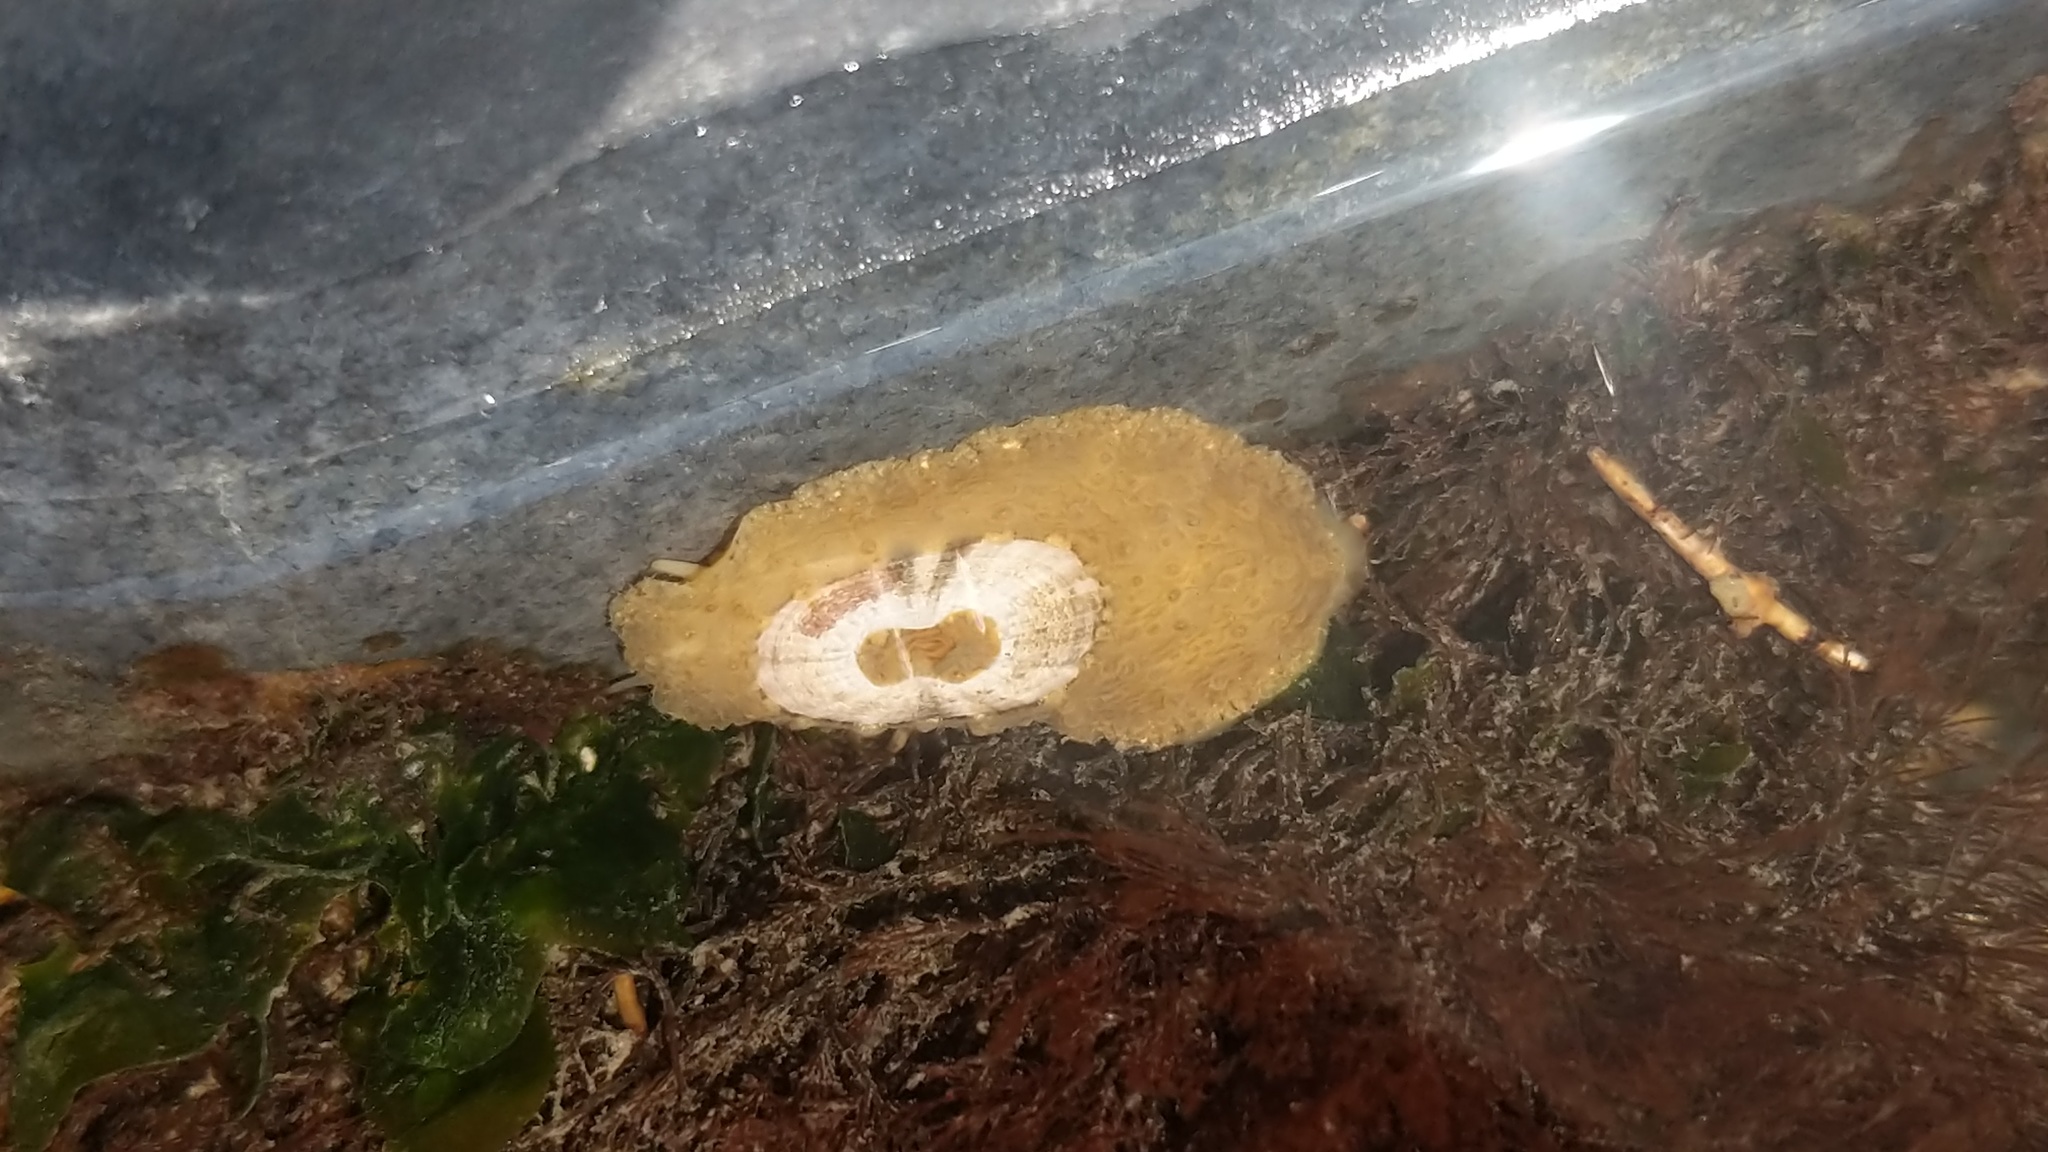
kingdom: Animalia
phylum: Mollusca
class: Gastropoda
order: Lepetellida
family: Fissurellidae
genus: Fissurellidea
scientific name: Fissurellidea bimaculata
